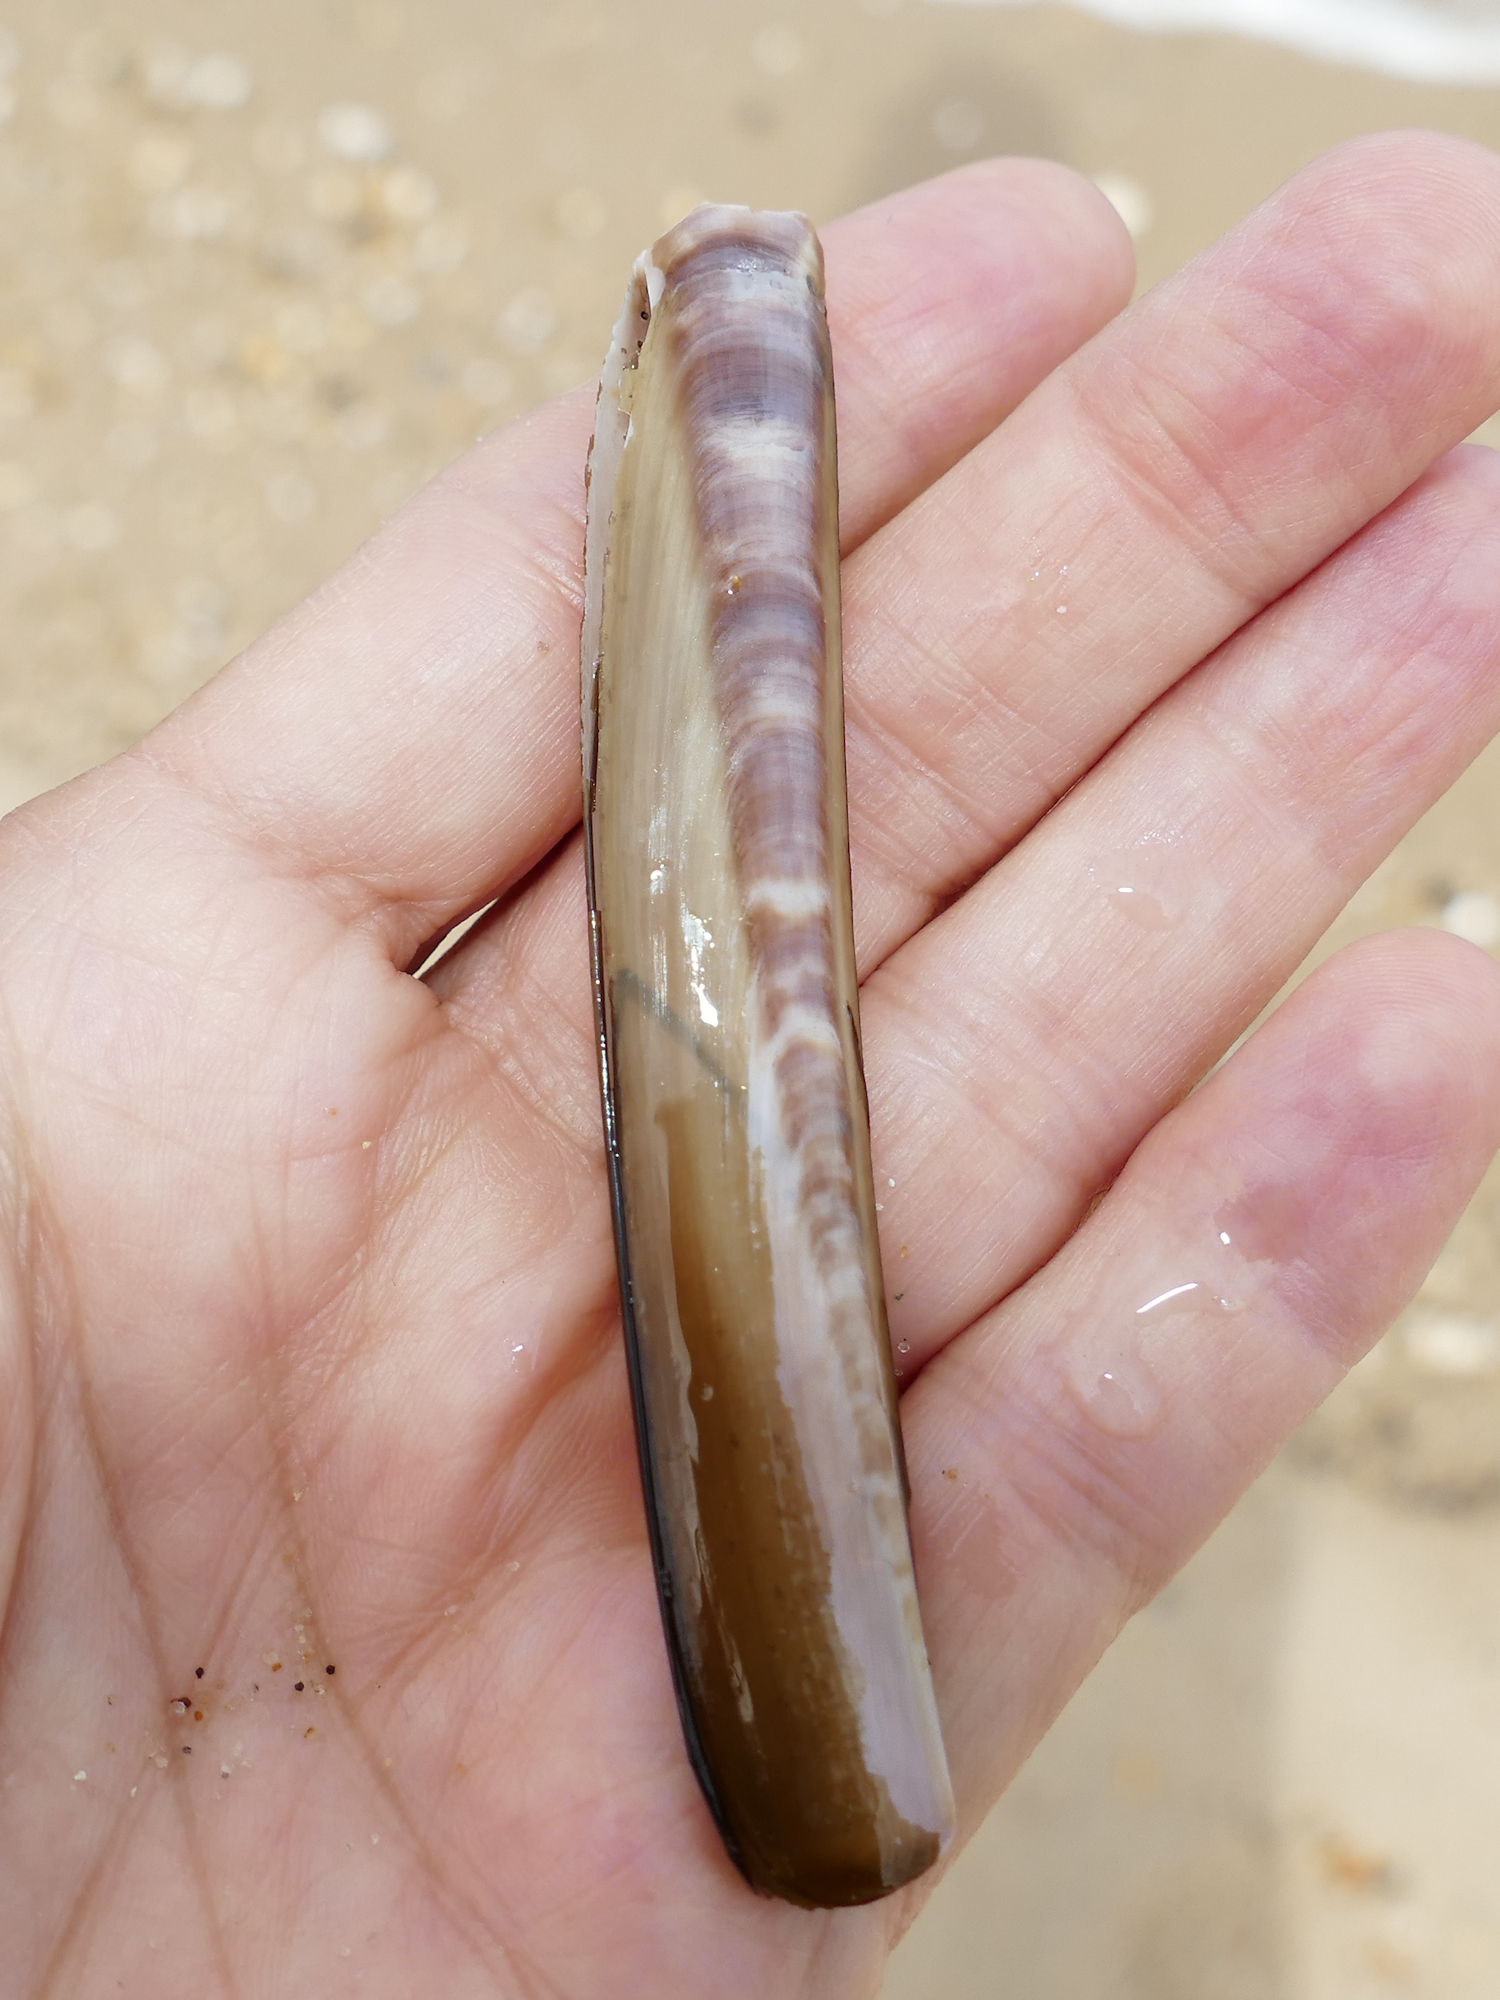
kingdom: Animalia
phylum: Mollusca
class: Bivalvia
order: Adapedonta
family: Pharidae
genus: Ensis
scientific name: Ensis leei
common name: American jack knife clam
